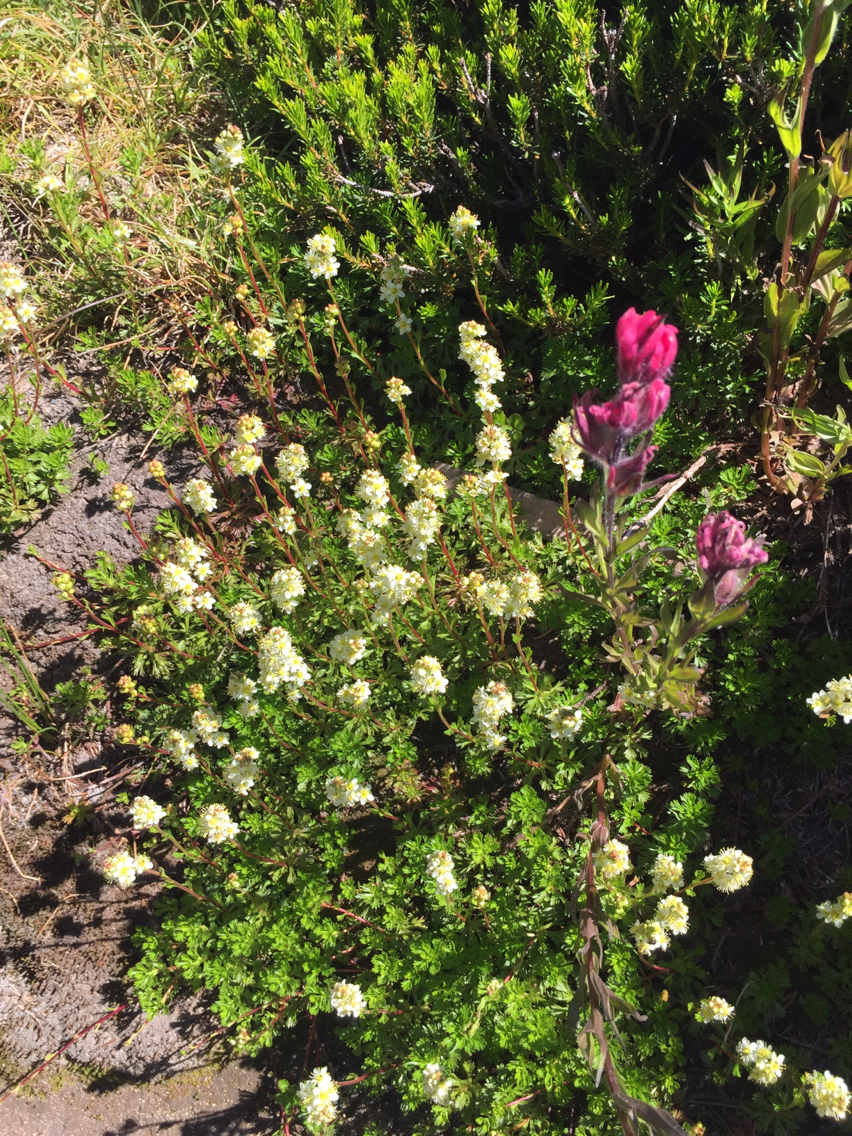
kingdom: Plantae
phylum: Tracheophyta
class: Magnoliopsida
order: Rosales
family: Rosaceae
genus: Luetkea
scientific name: Luetkea pectinata
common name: Partridgefoot
